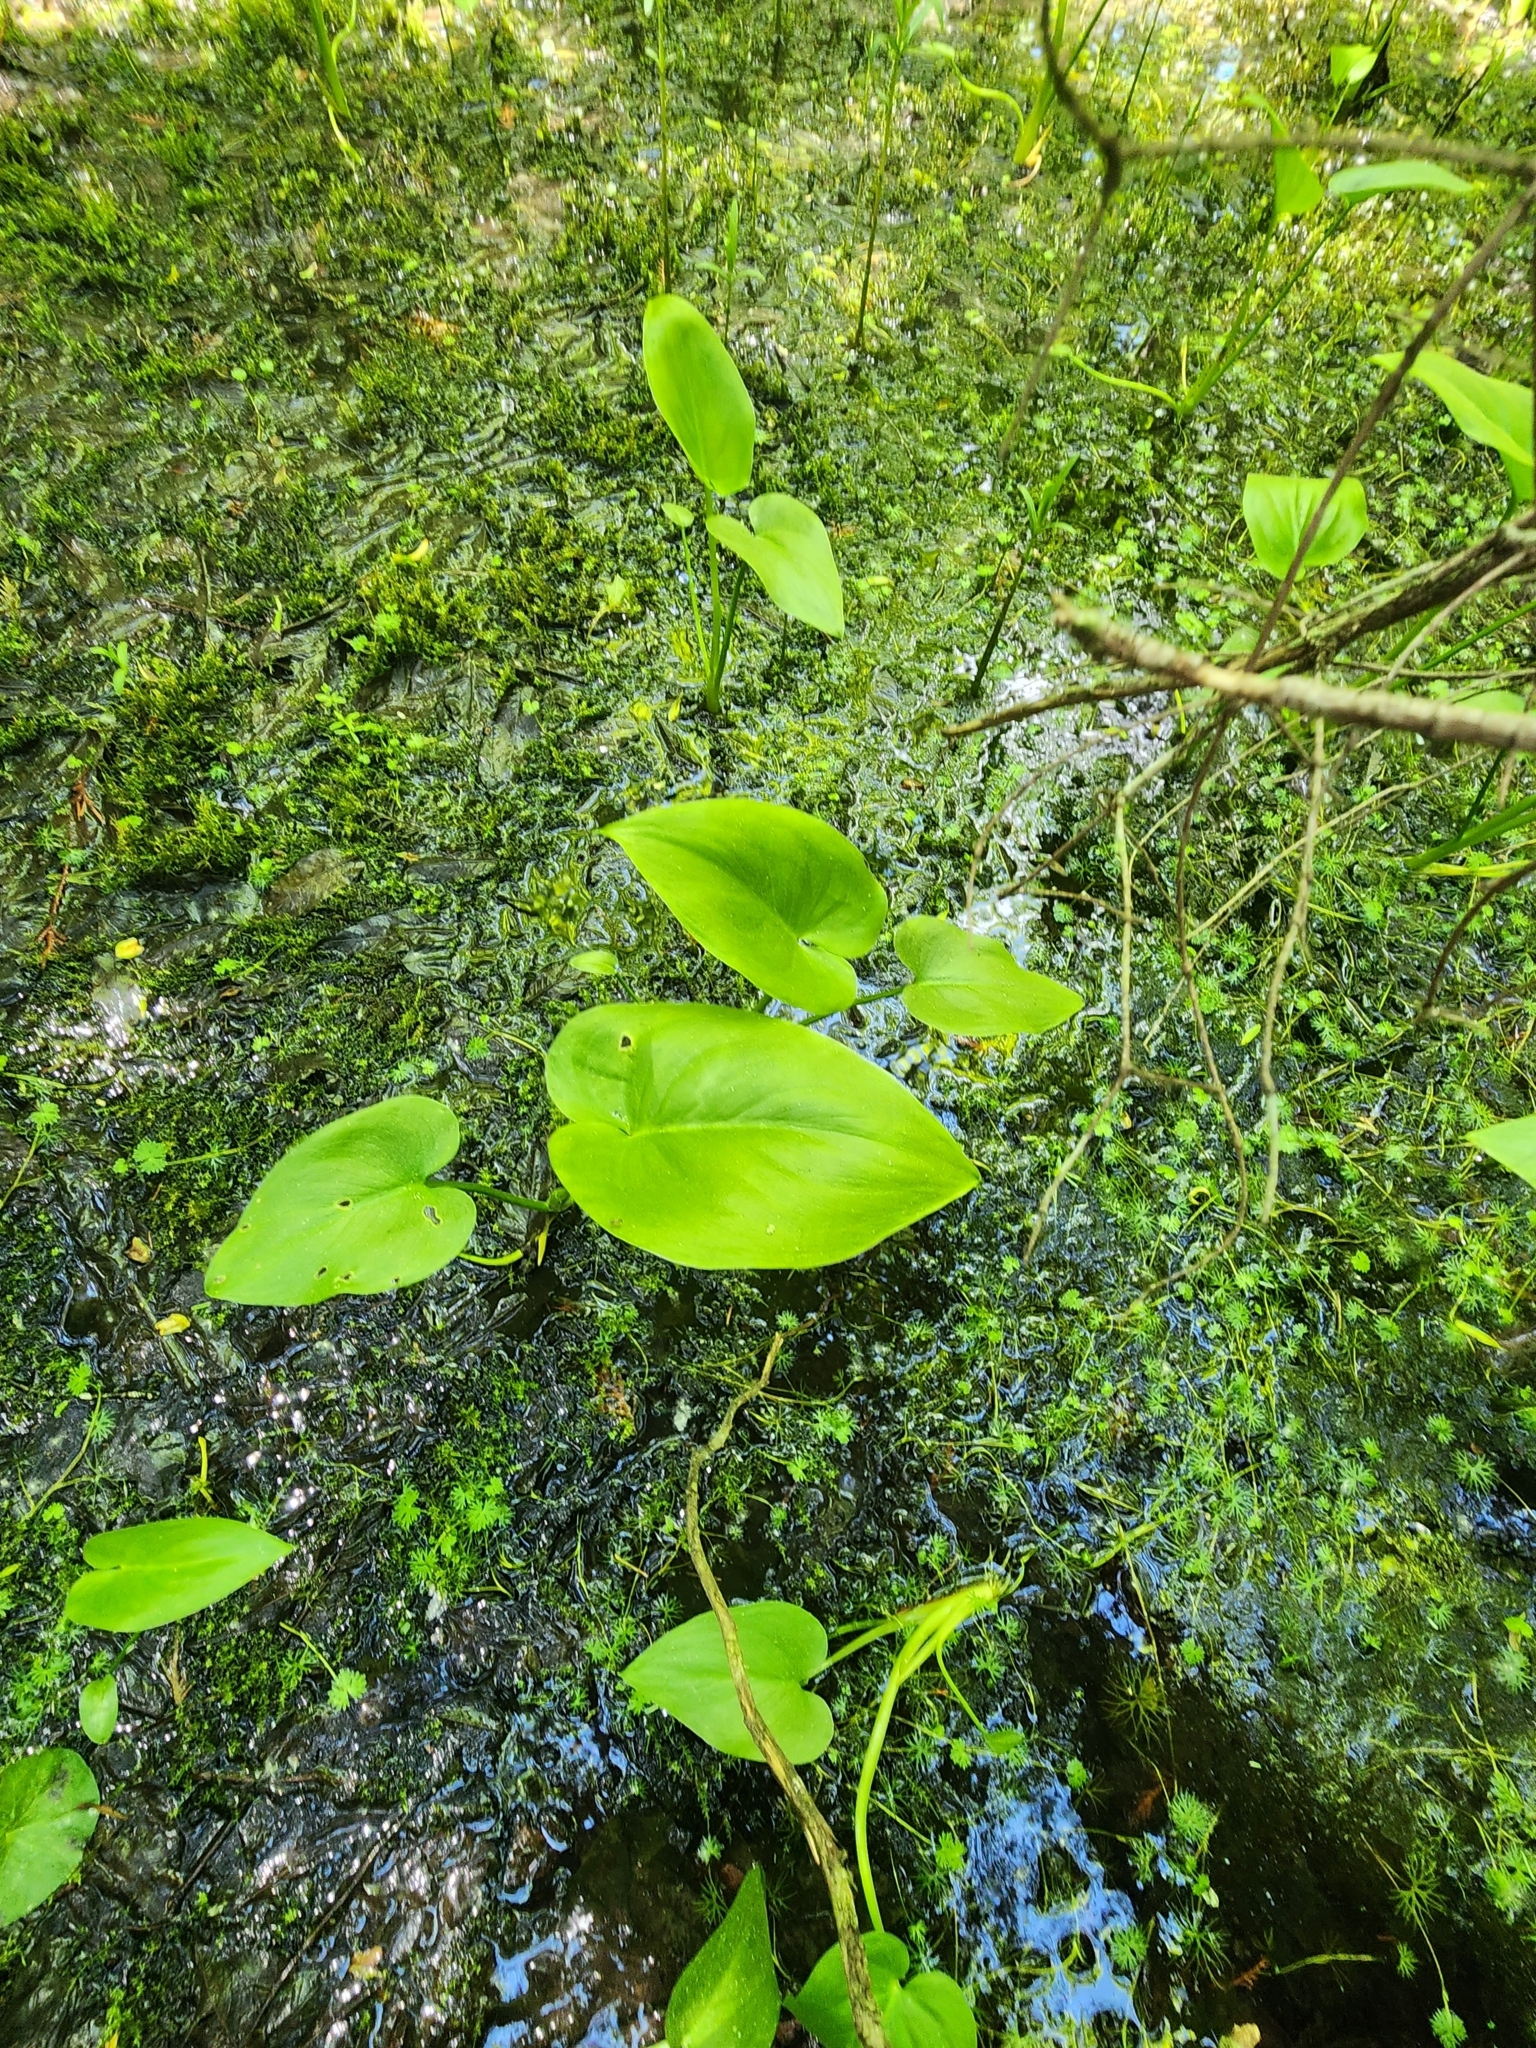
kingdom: Plantae
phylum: Tracheophyta
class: Liliopsida
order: Alismatales
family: Araceae
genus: Calla
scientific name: Calla palustris
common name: Bog arum
